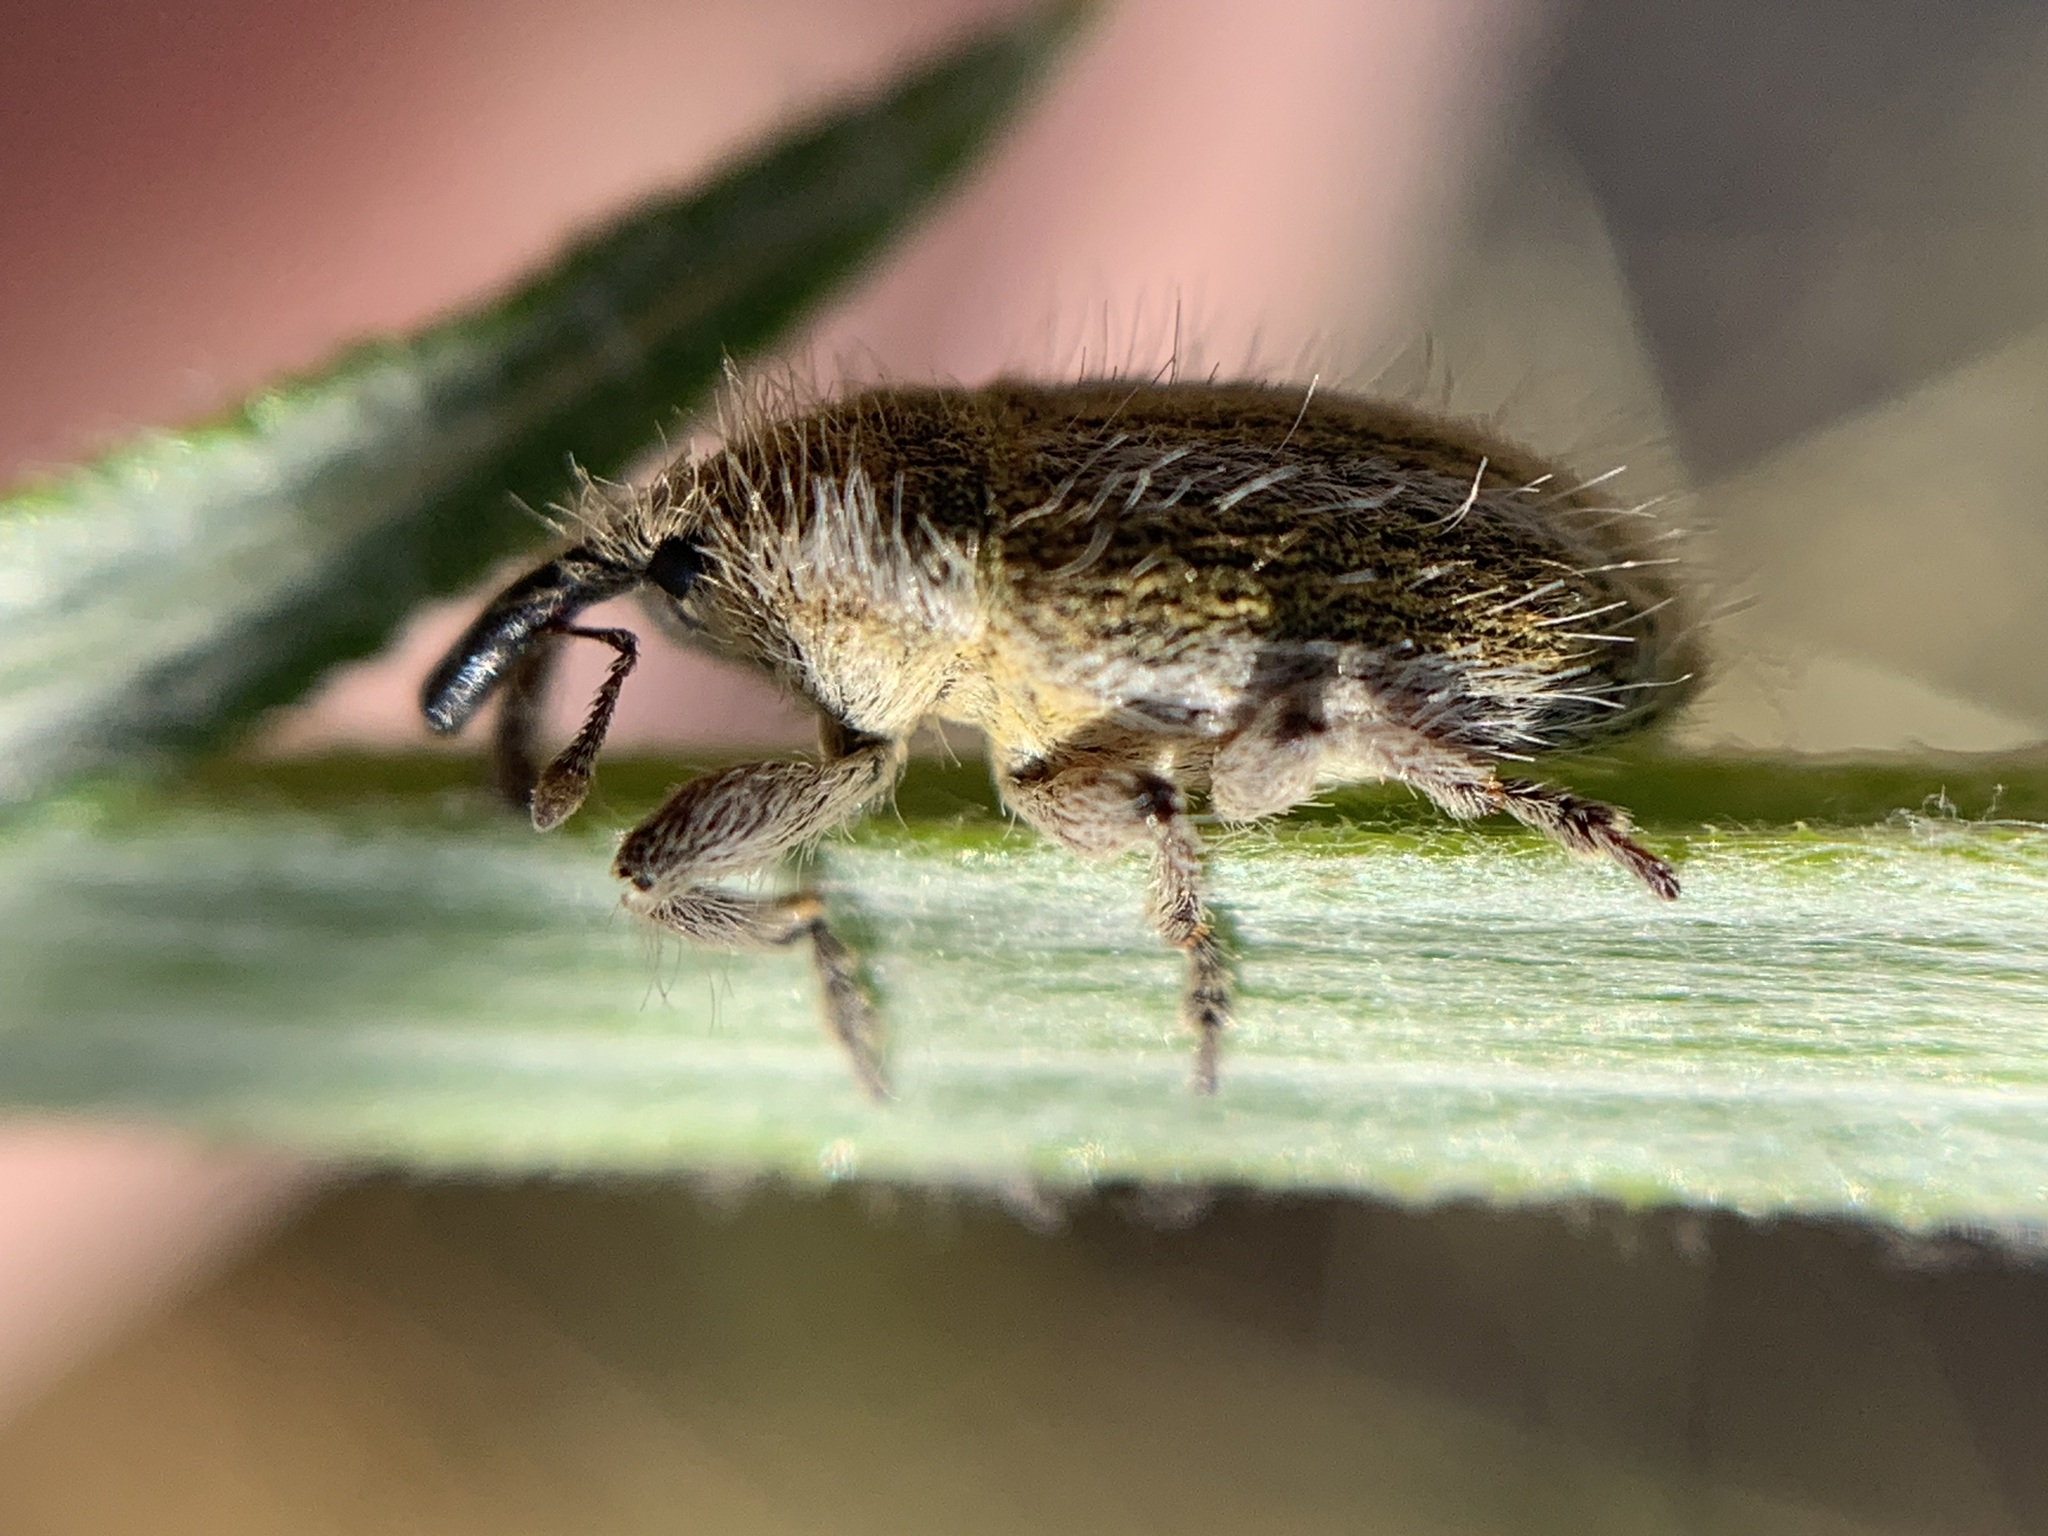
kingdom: Animalia
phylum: Arthropoda
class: Insecta
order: Coleoptera
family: Curculionidae
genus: Larinus
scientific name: Larinus villosus
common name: Yellow starthistle hairy weevil
